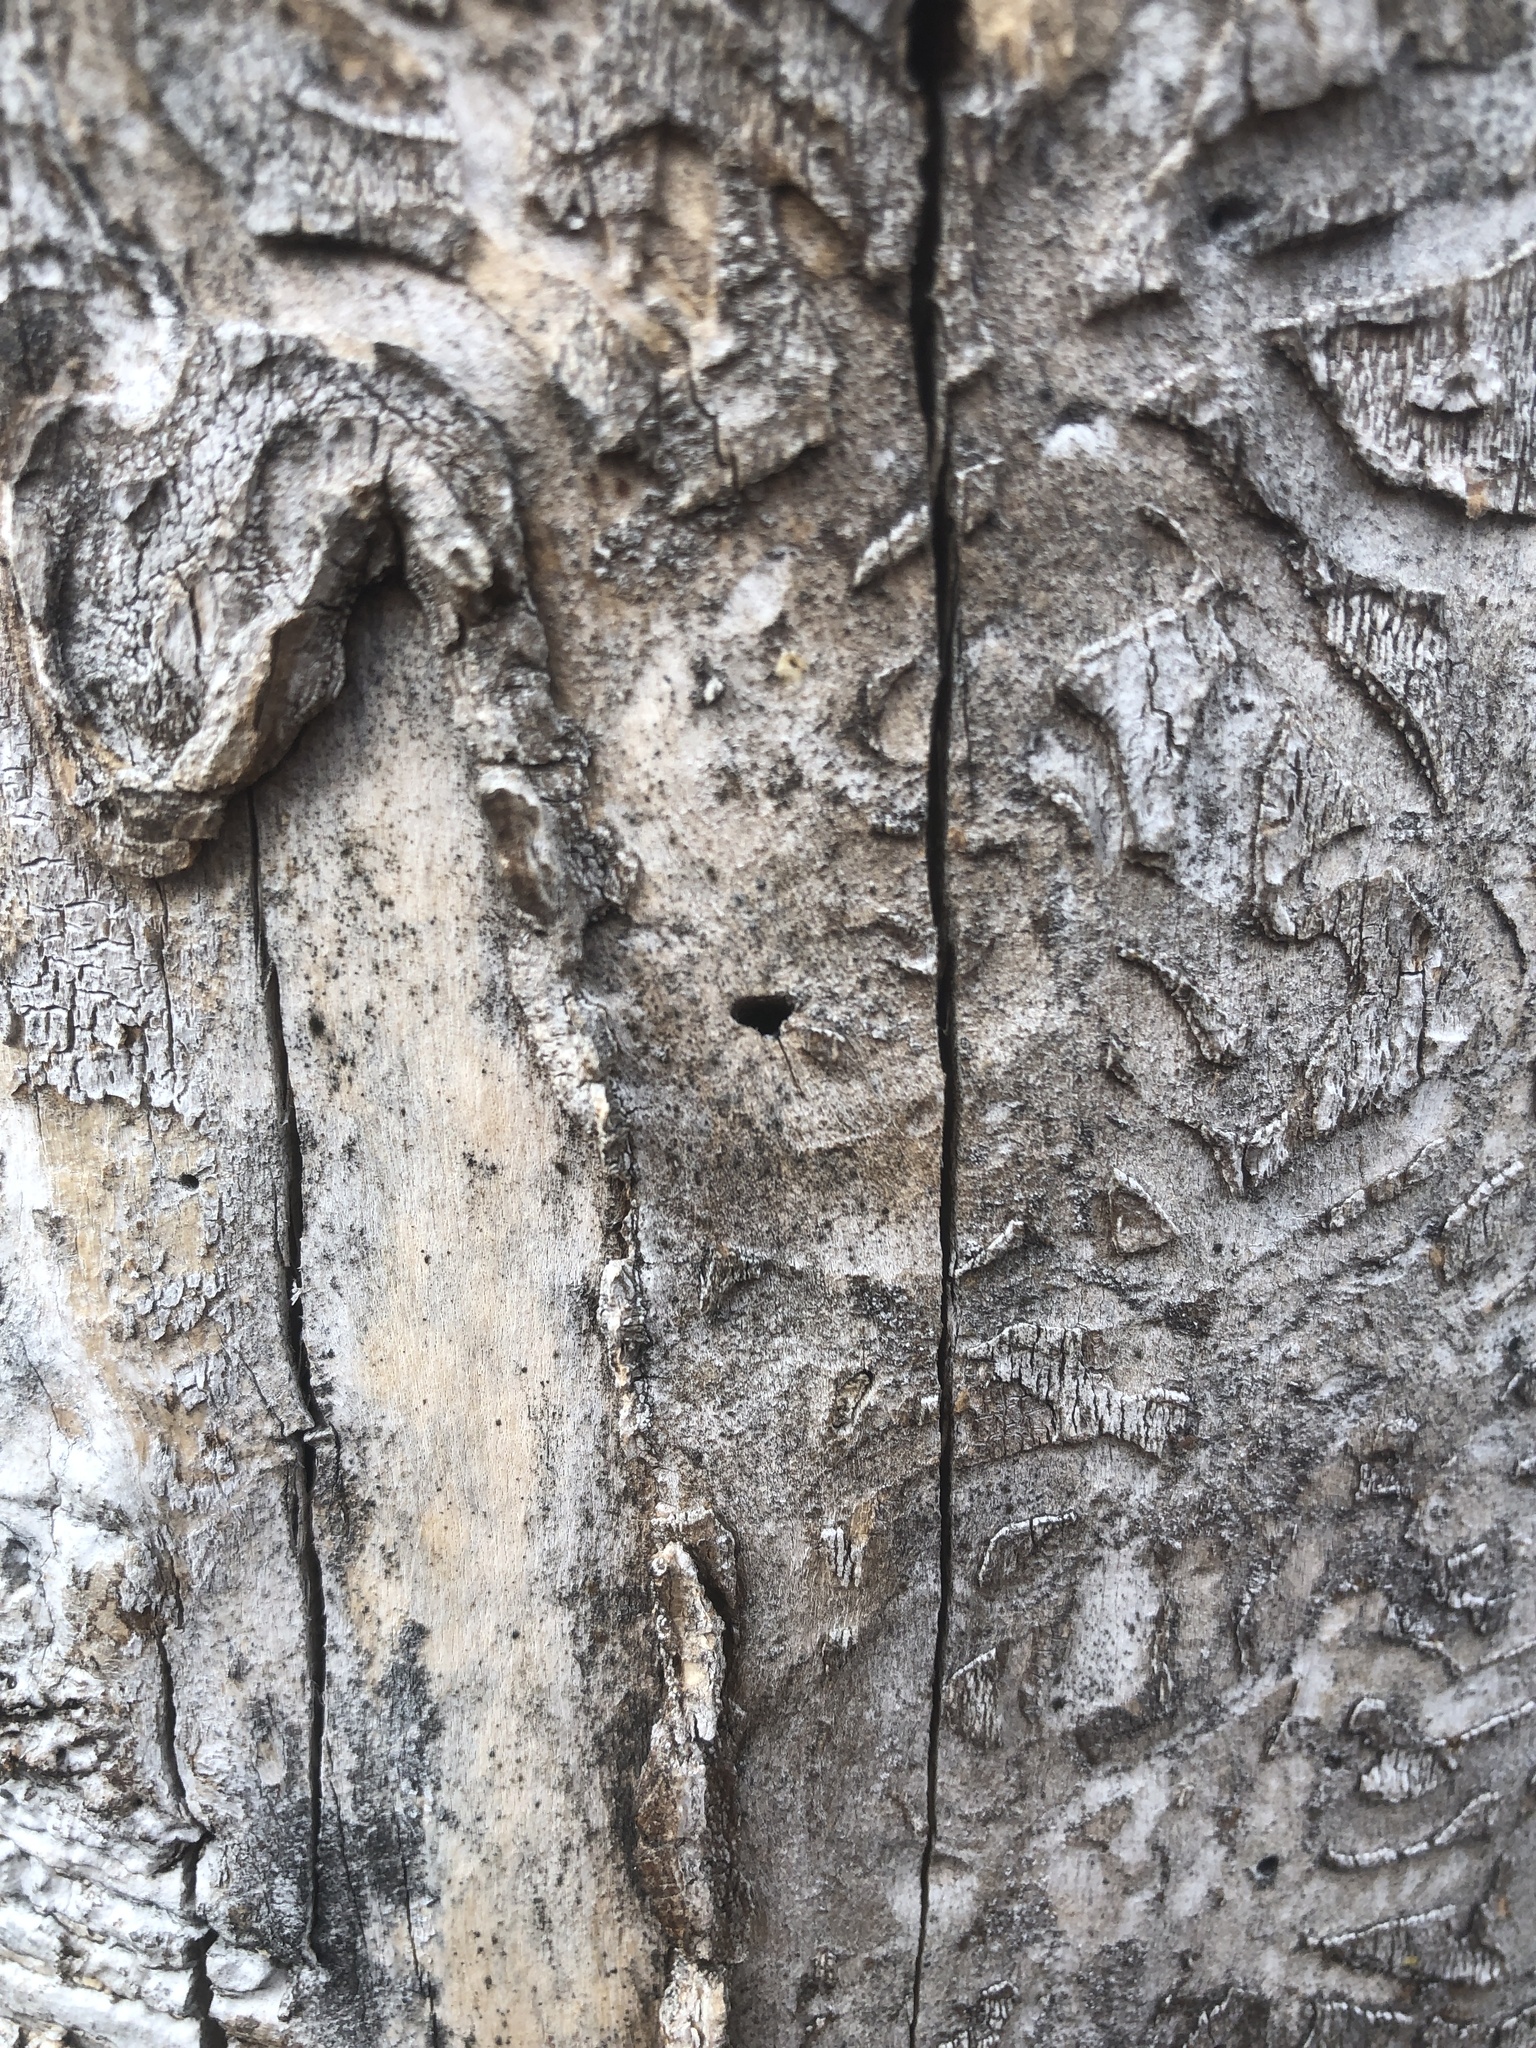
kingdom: Animalia
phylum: Arthropoda
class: Insecta
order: Coleoptera
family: Buprestidae
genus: Agrilus
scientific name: Agrilus planipennis
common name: Emerald ash borer
